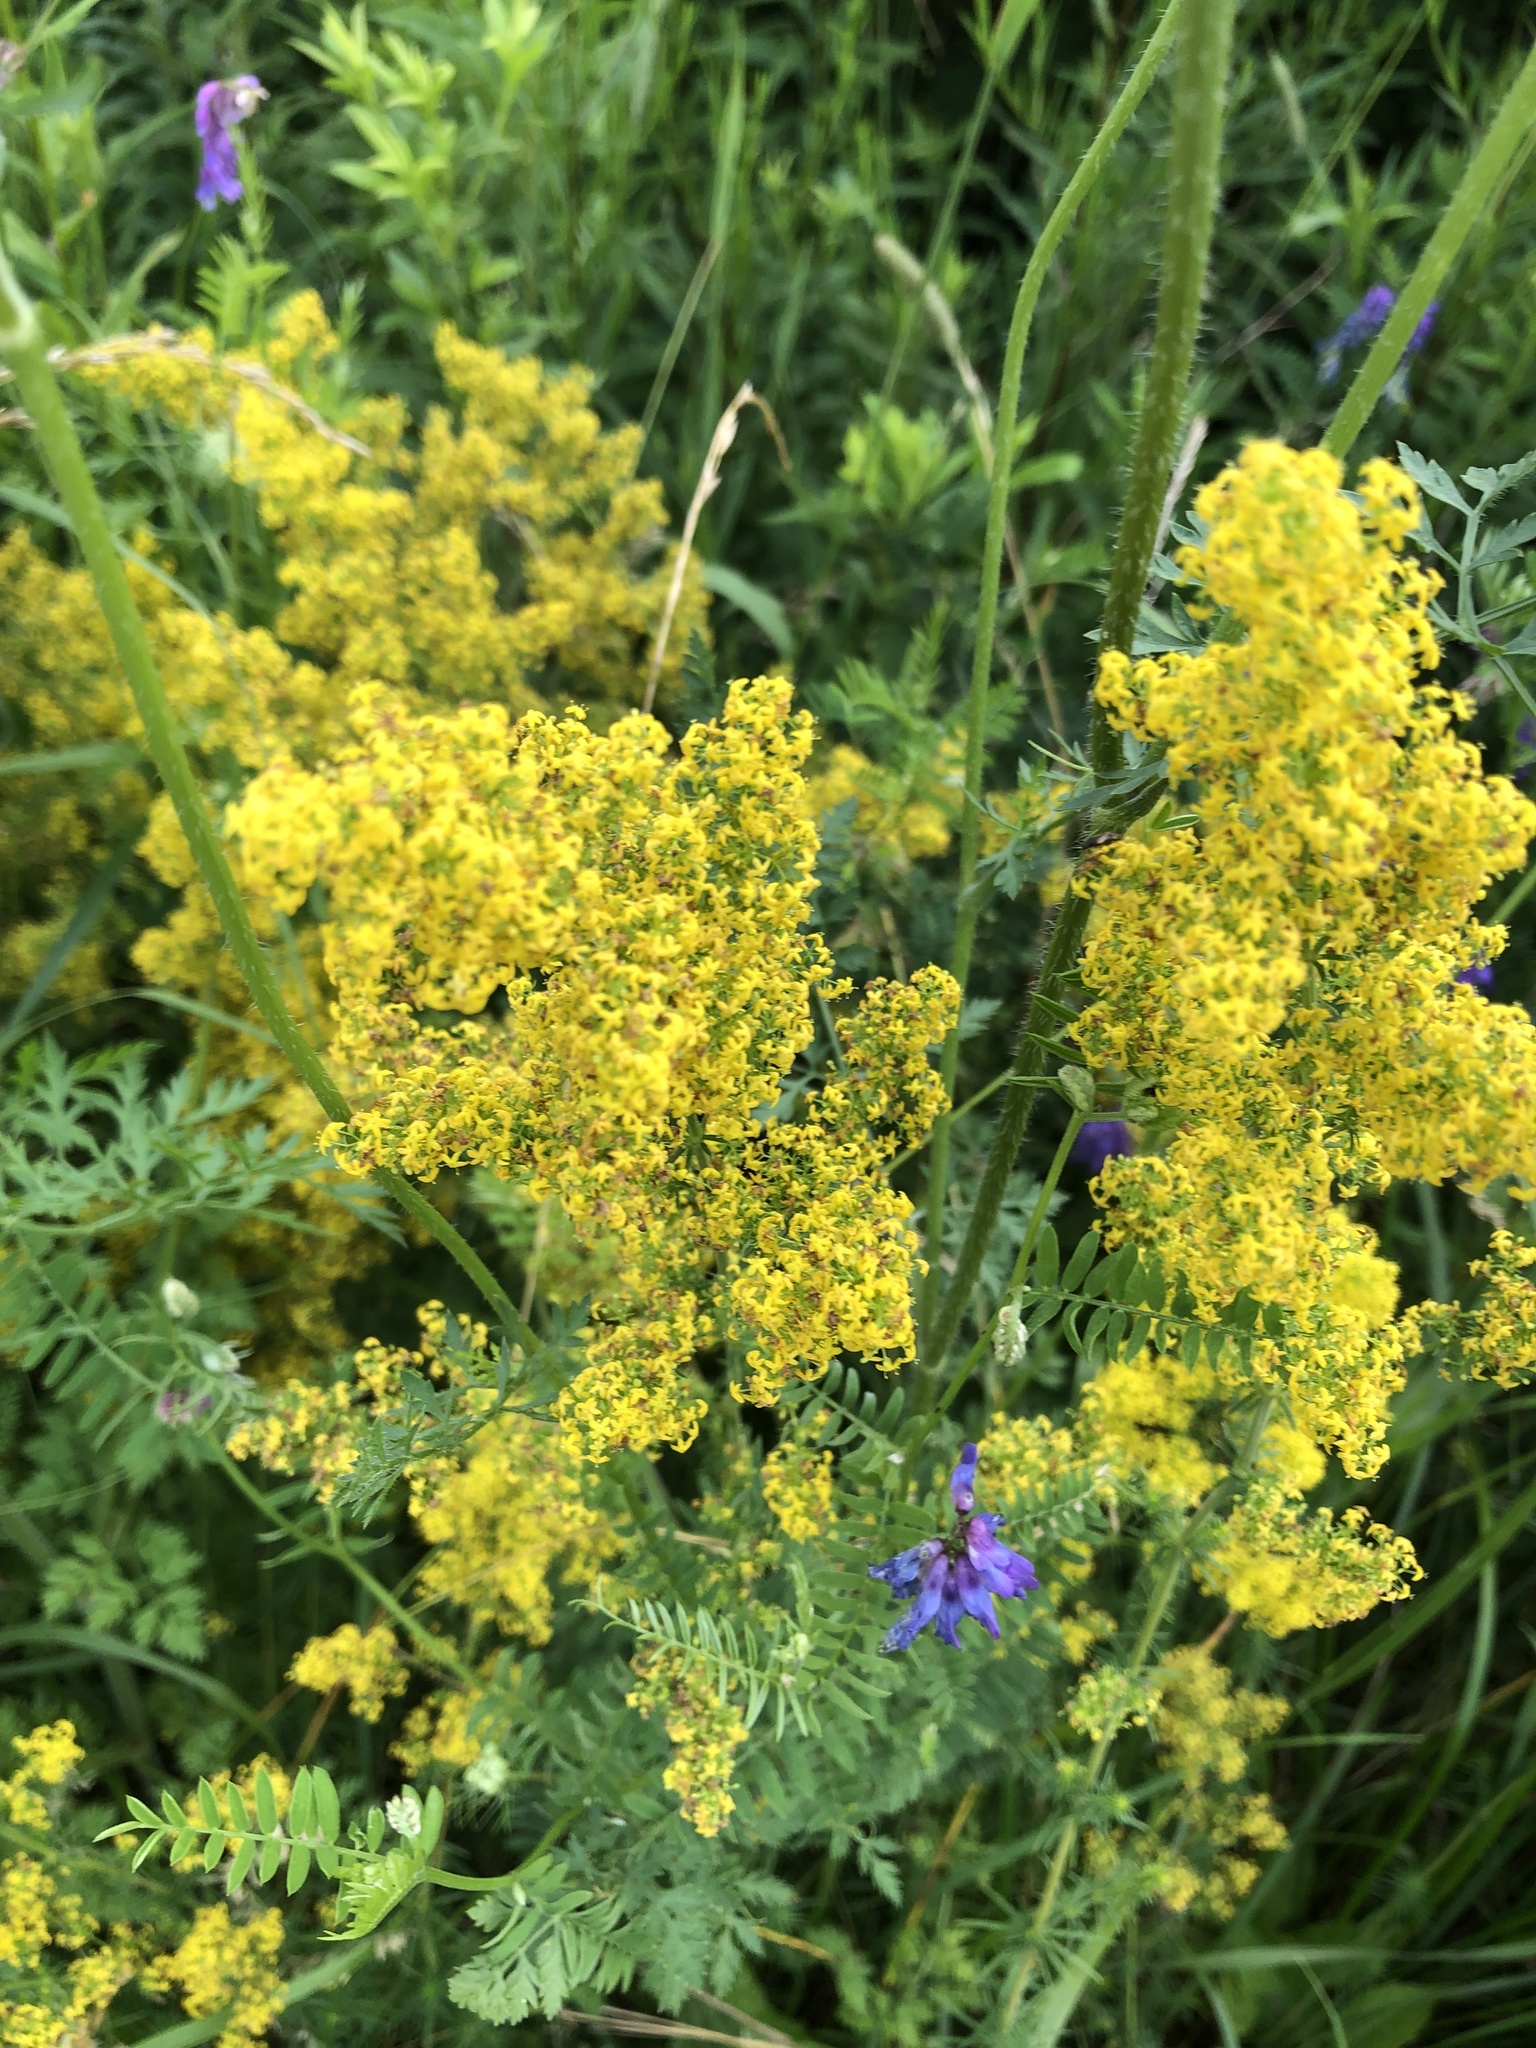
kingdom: Plantae
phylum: Tracheophyta
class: Magnoliopsida
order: Gentianales
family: Rubiaceae
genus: Galium
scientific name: Galium verum
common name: Lady's bedstraw
